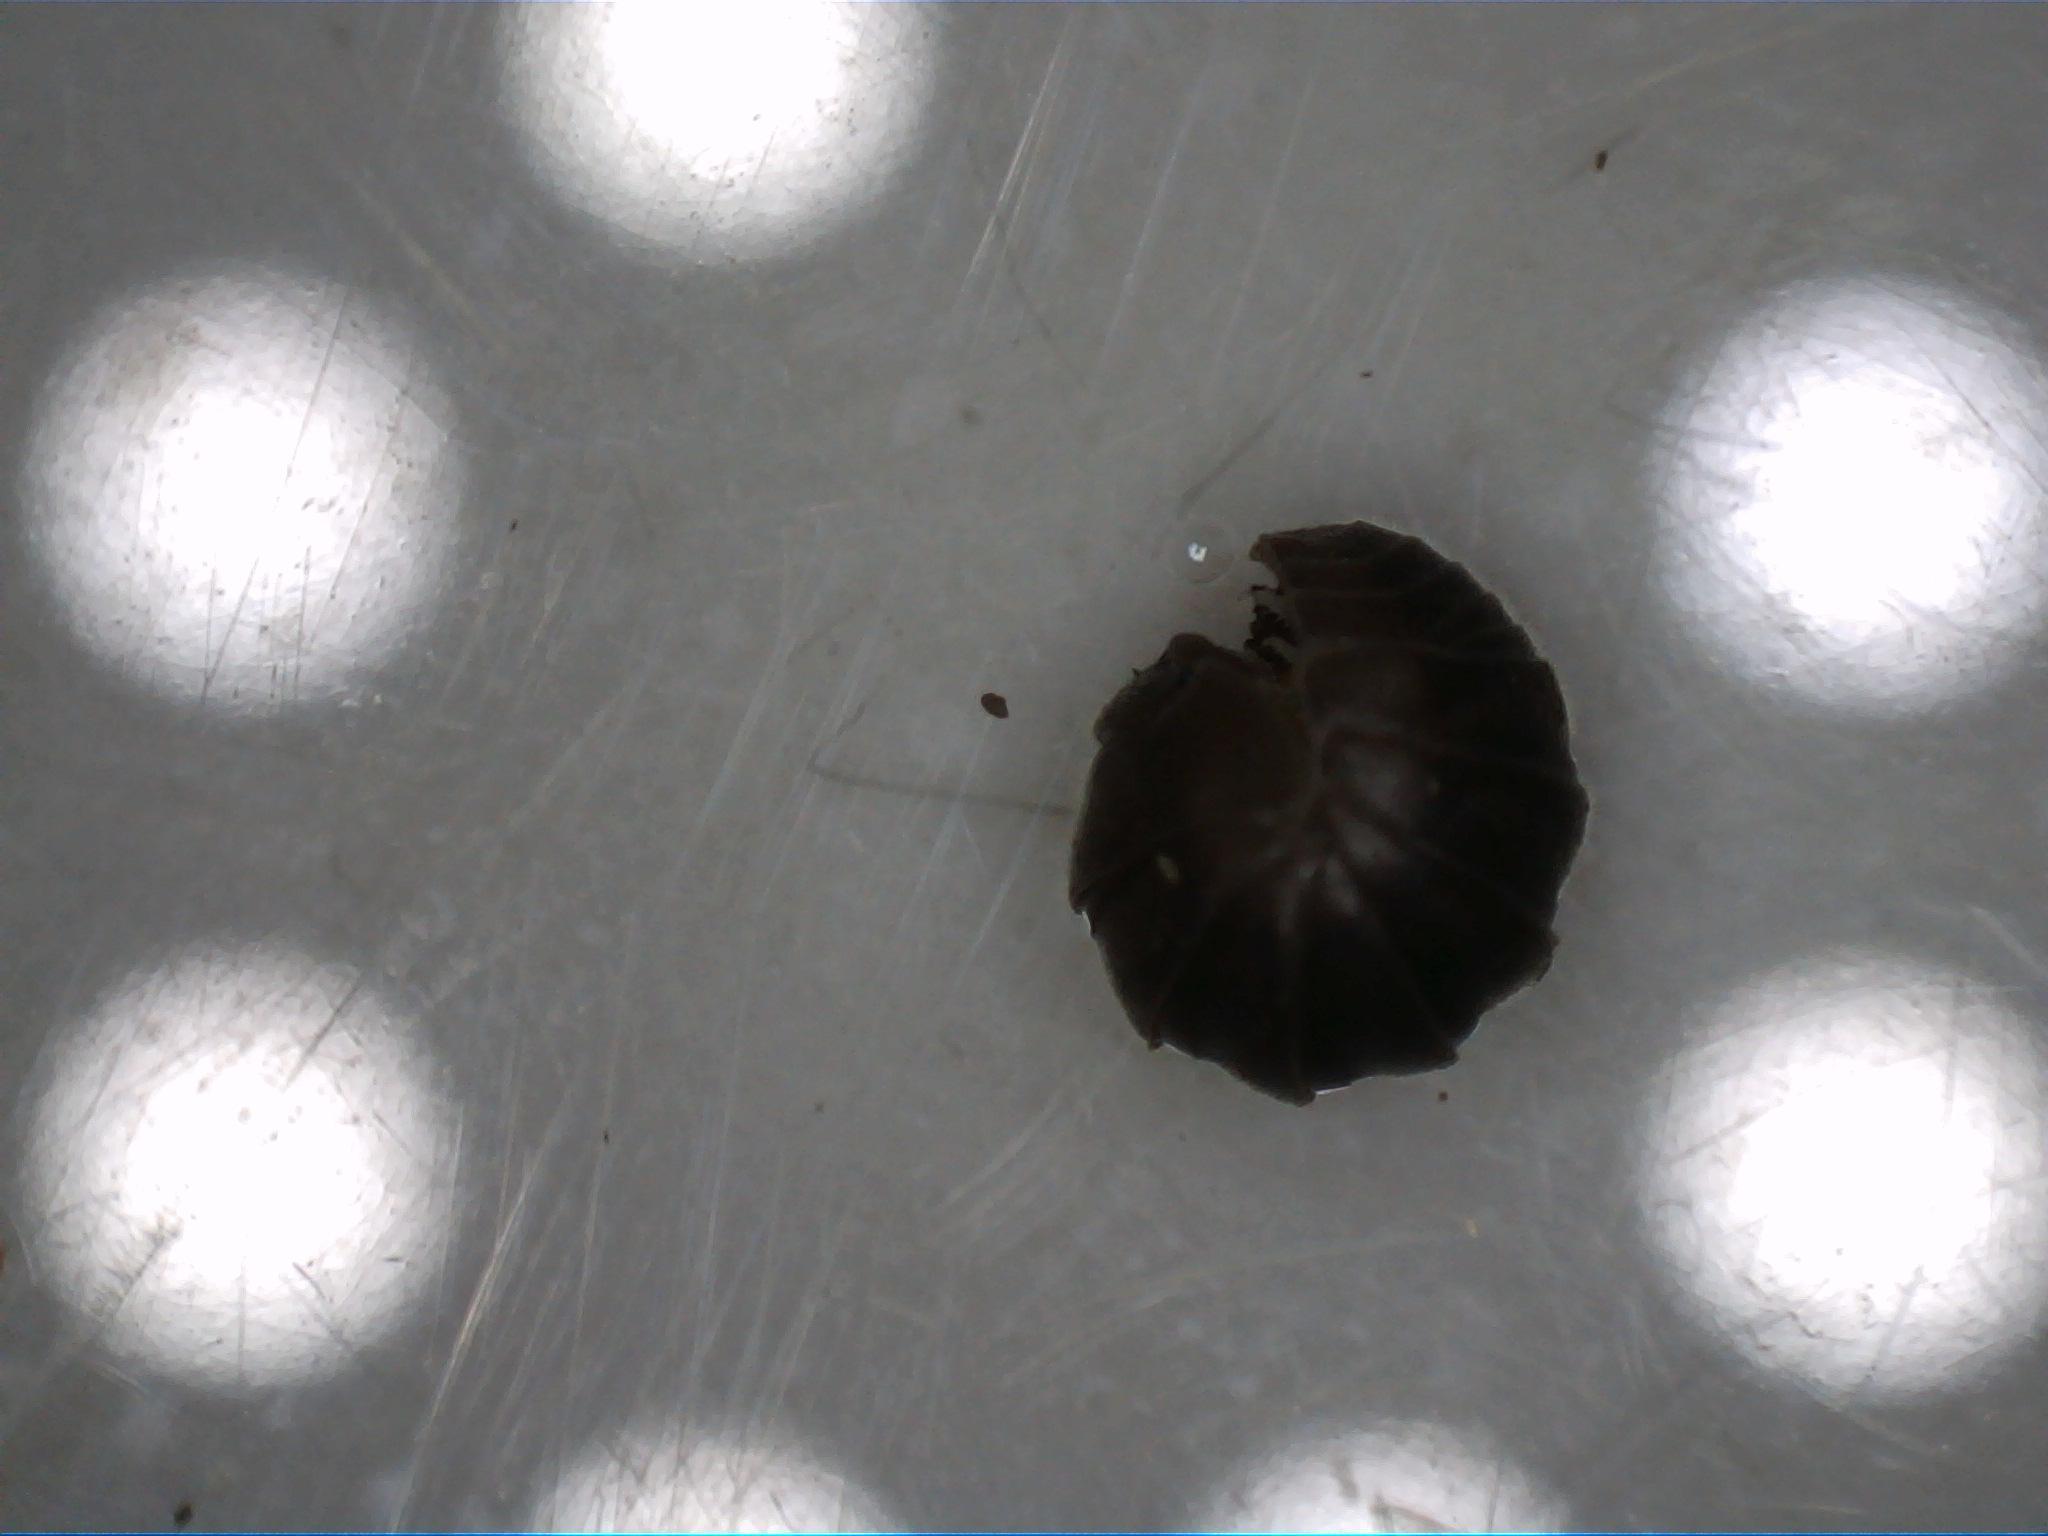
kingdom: Animalia
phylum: Arthropoda
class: Malacostraca
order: Isopoda
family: Armadillidiidae
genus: Armadillidium
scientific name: Armadillidium vulgare
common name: Common pill woodlouse
